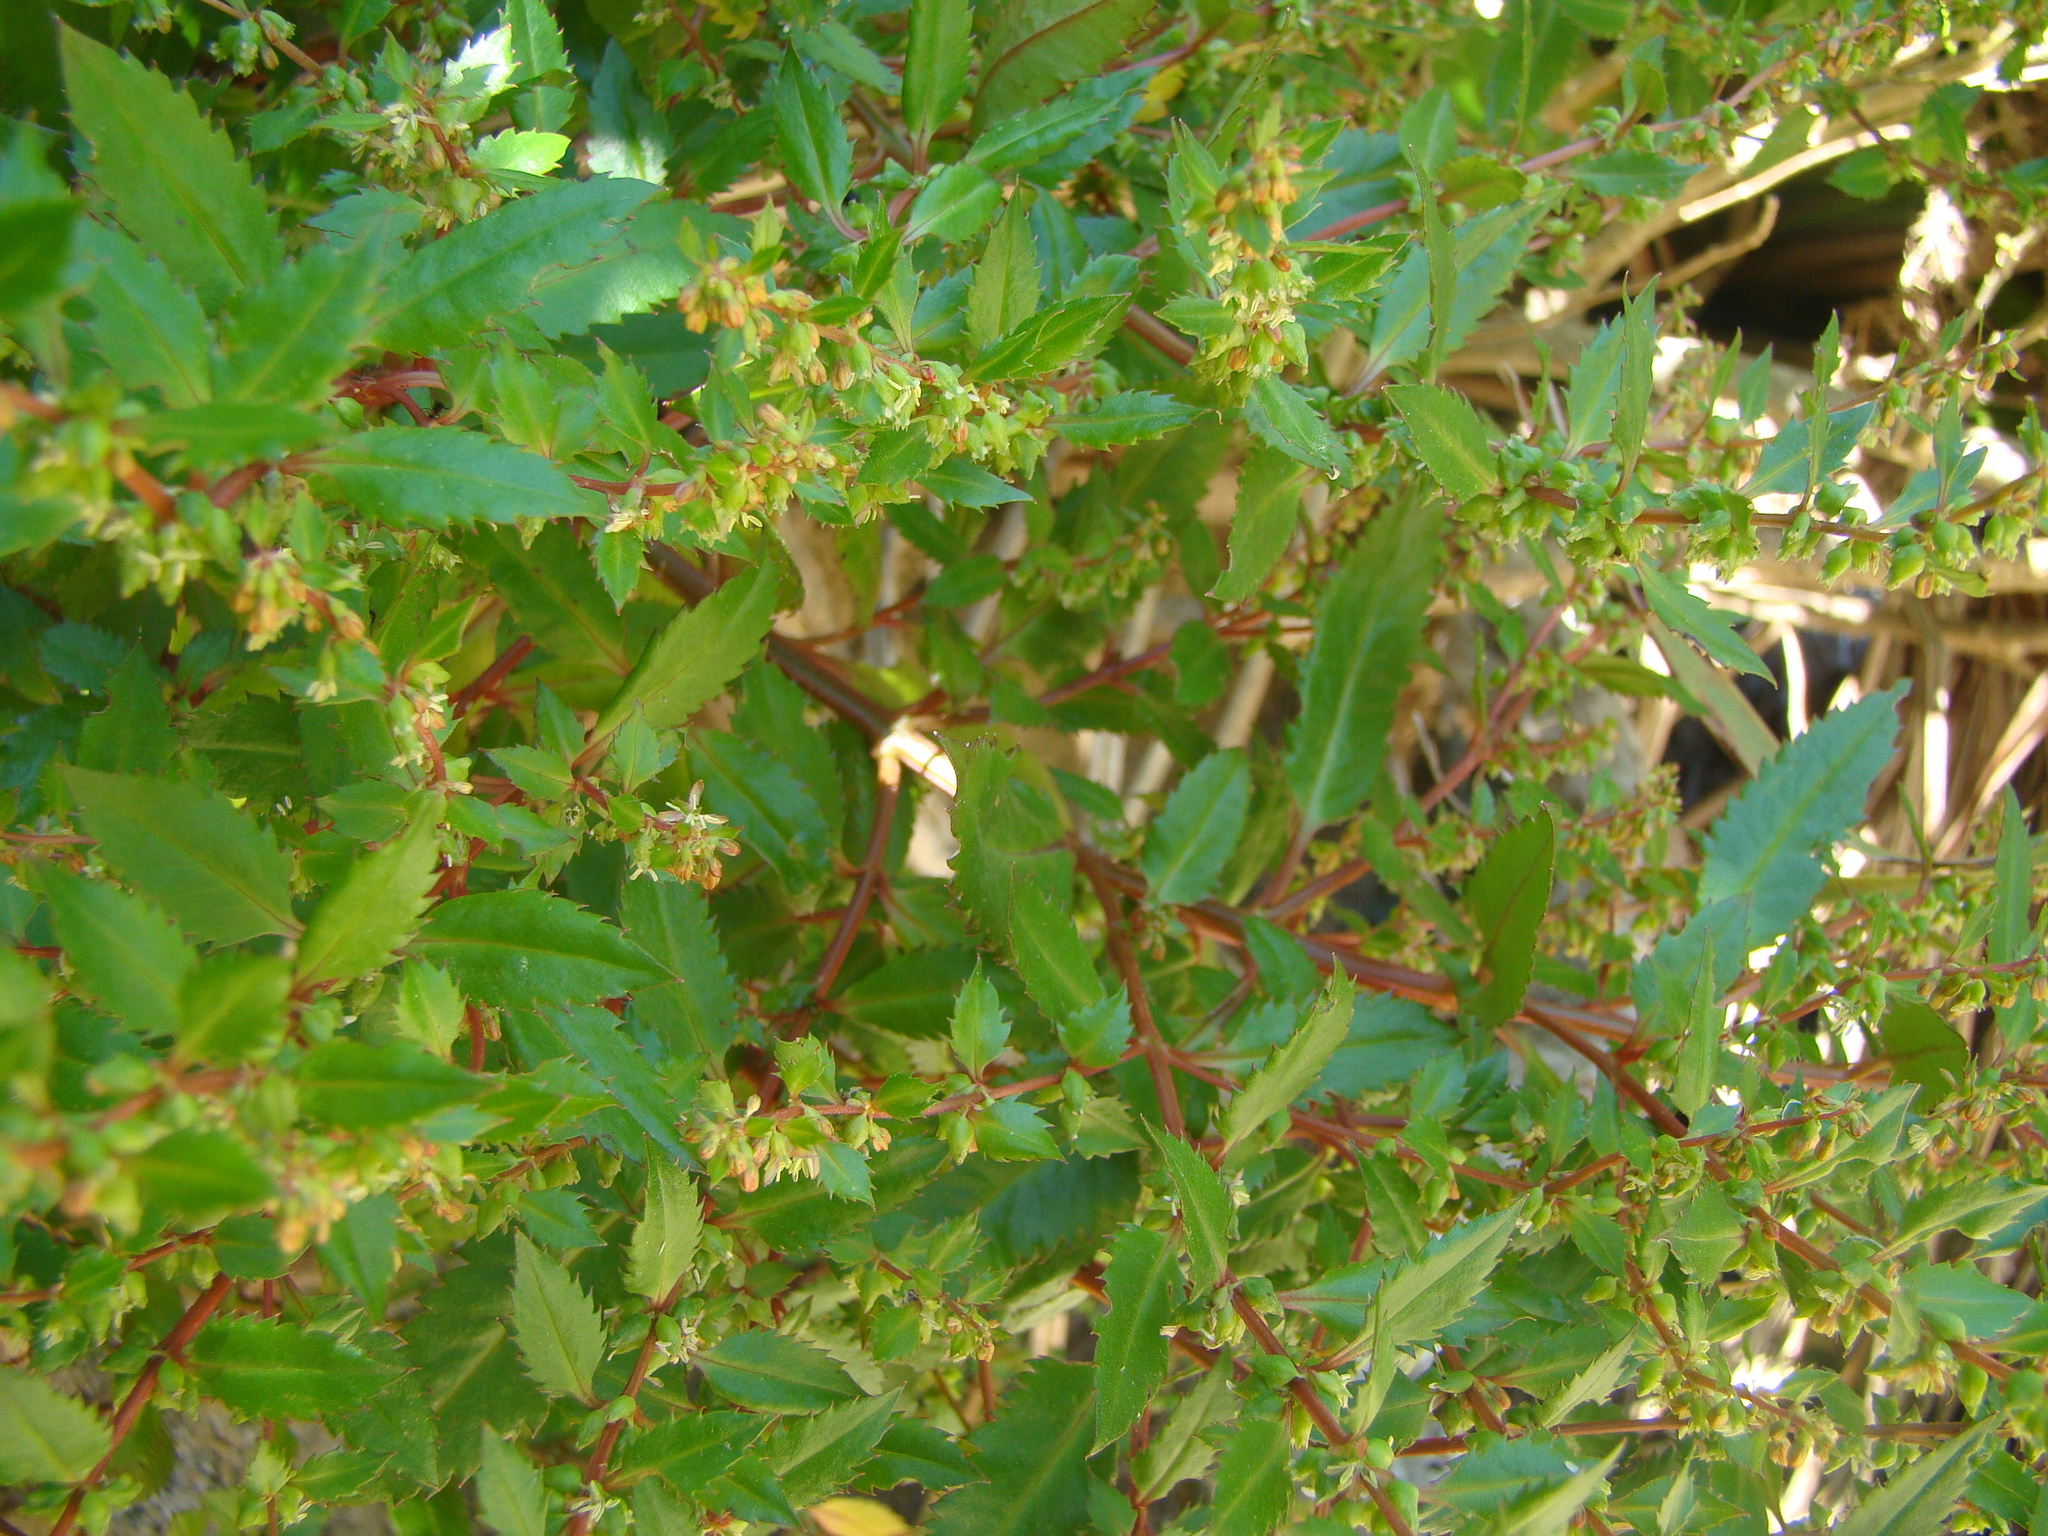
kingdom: Plantae
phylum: Tracheophyta
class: Magnoliopsida
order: Saxifragales
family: Haloragaceae
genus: Haloragis
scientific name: Haloragis erecta
